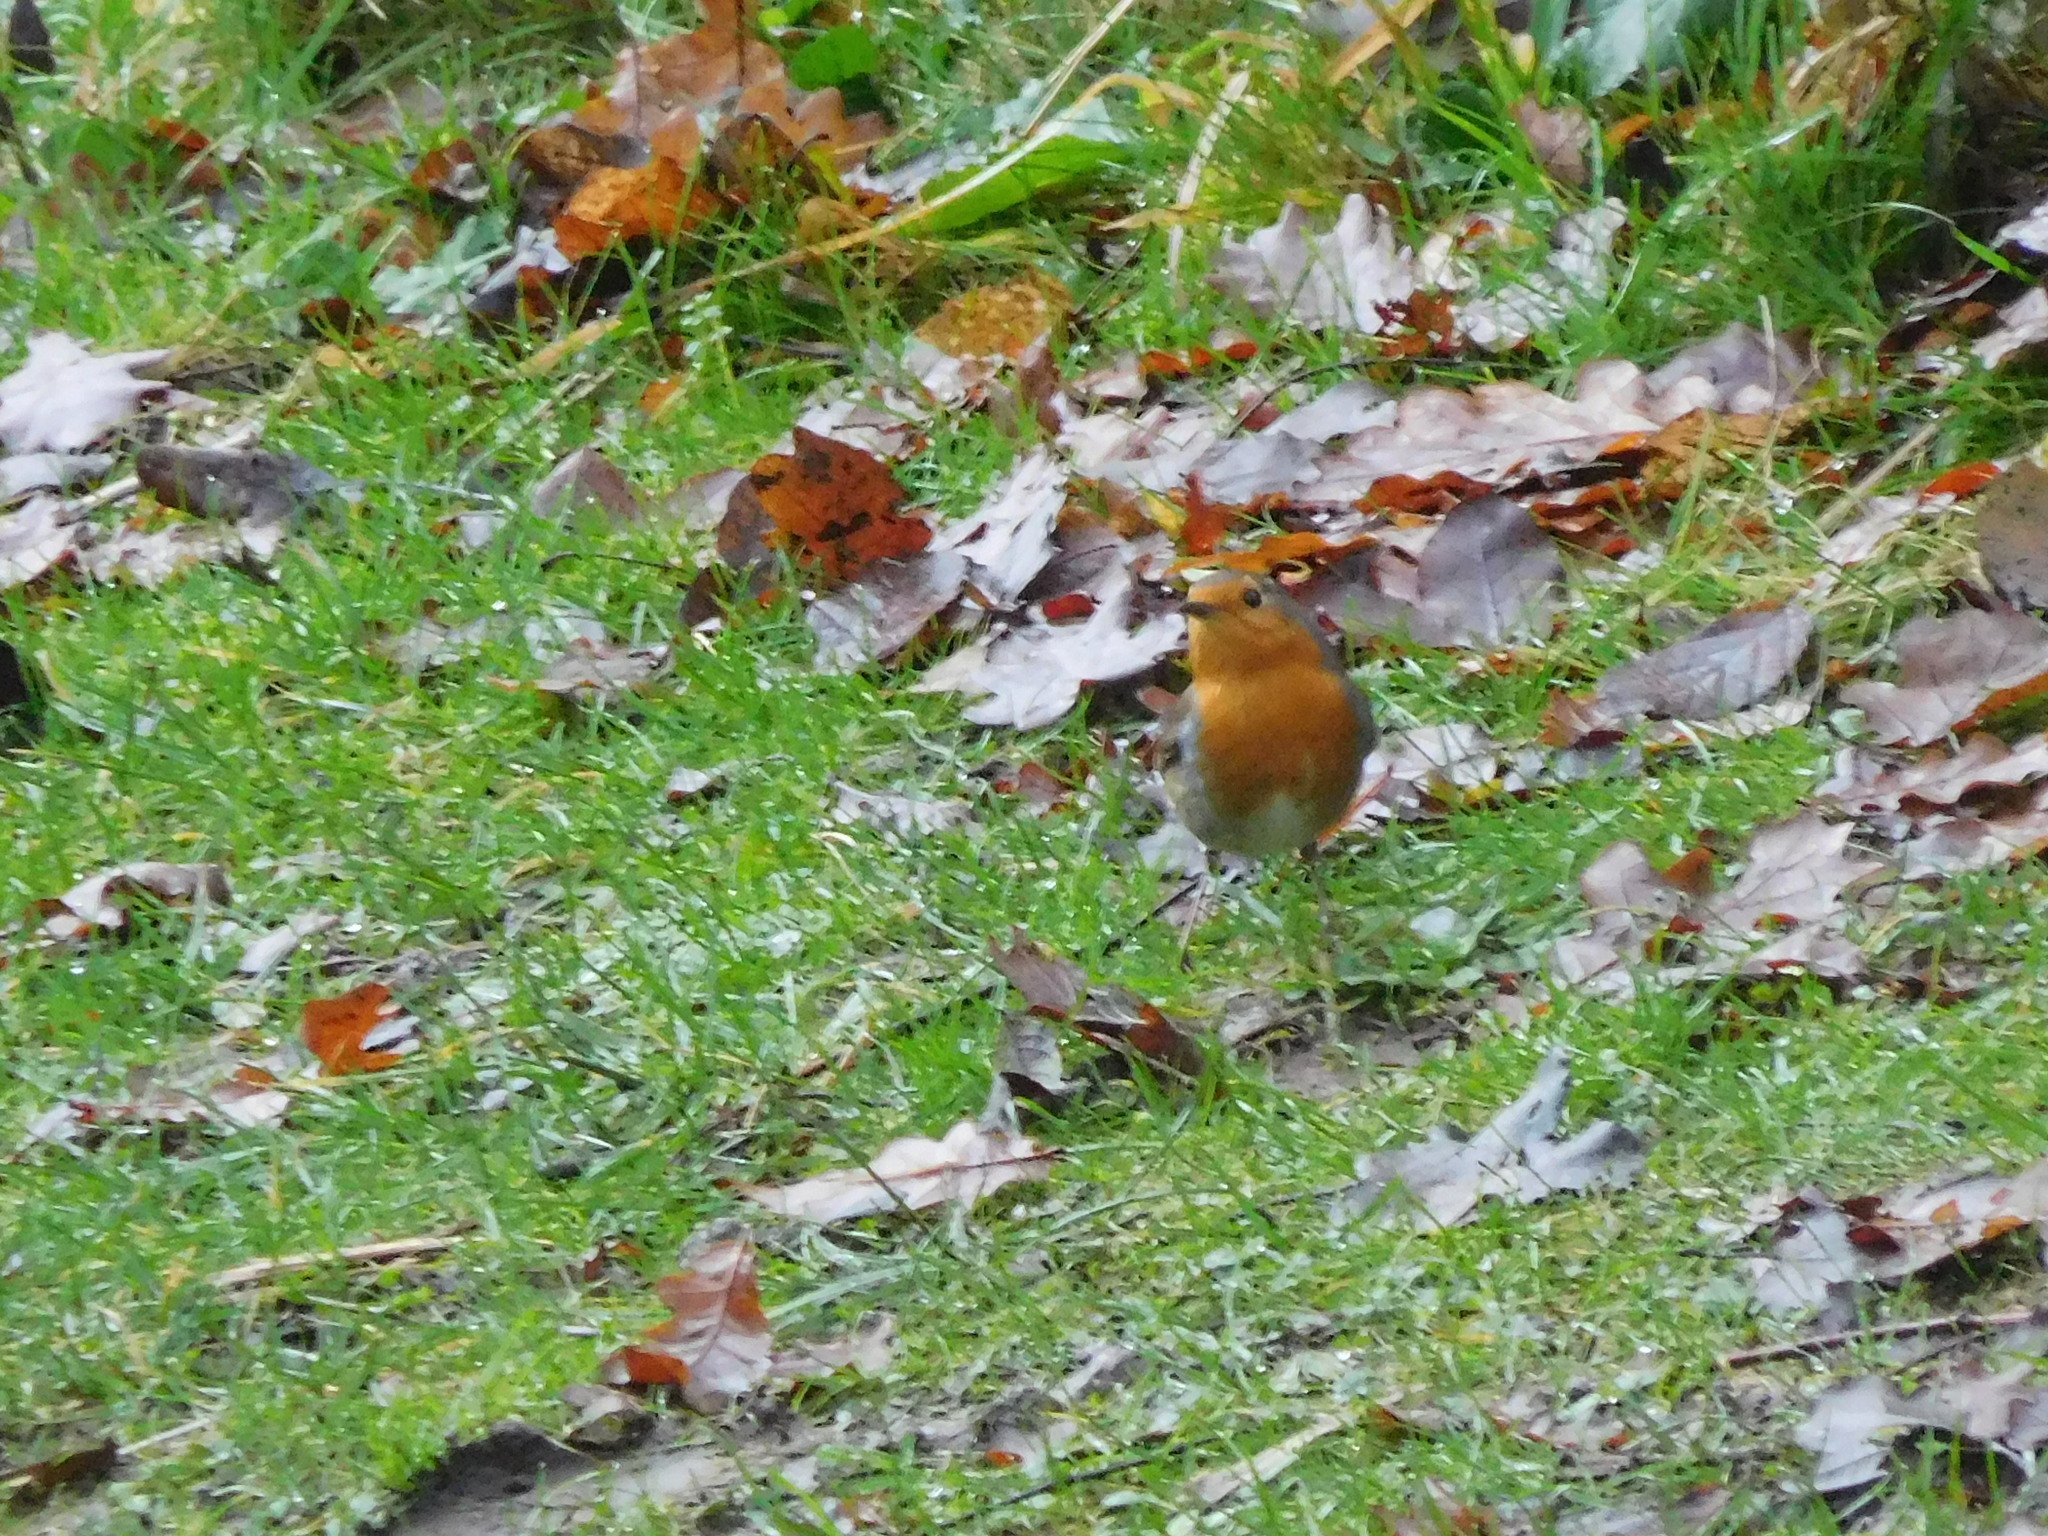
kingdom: Animalia
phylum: Chordata
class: Aves
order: Passeriformes
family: Muscicapidae
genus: Erithacus
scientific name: Erithacus rubecula
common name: European robin
